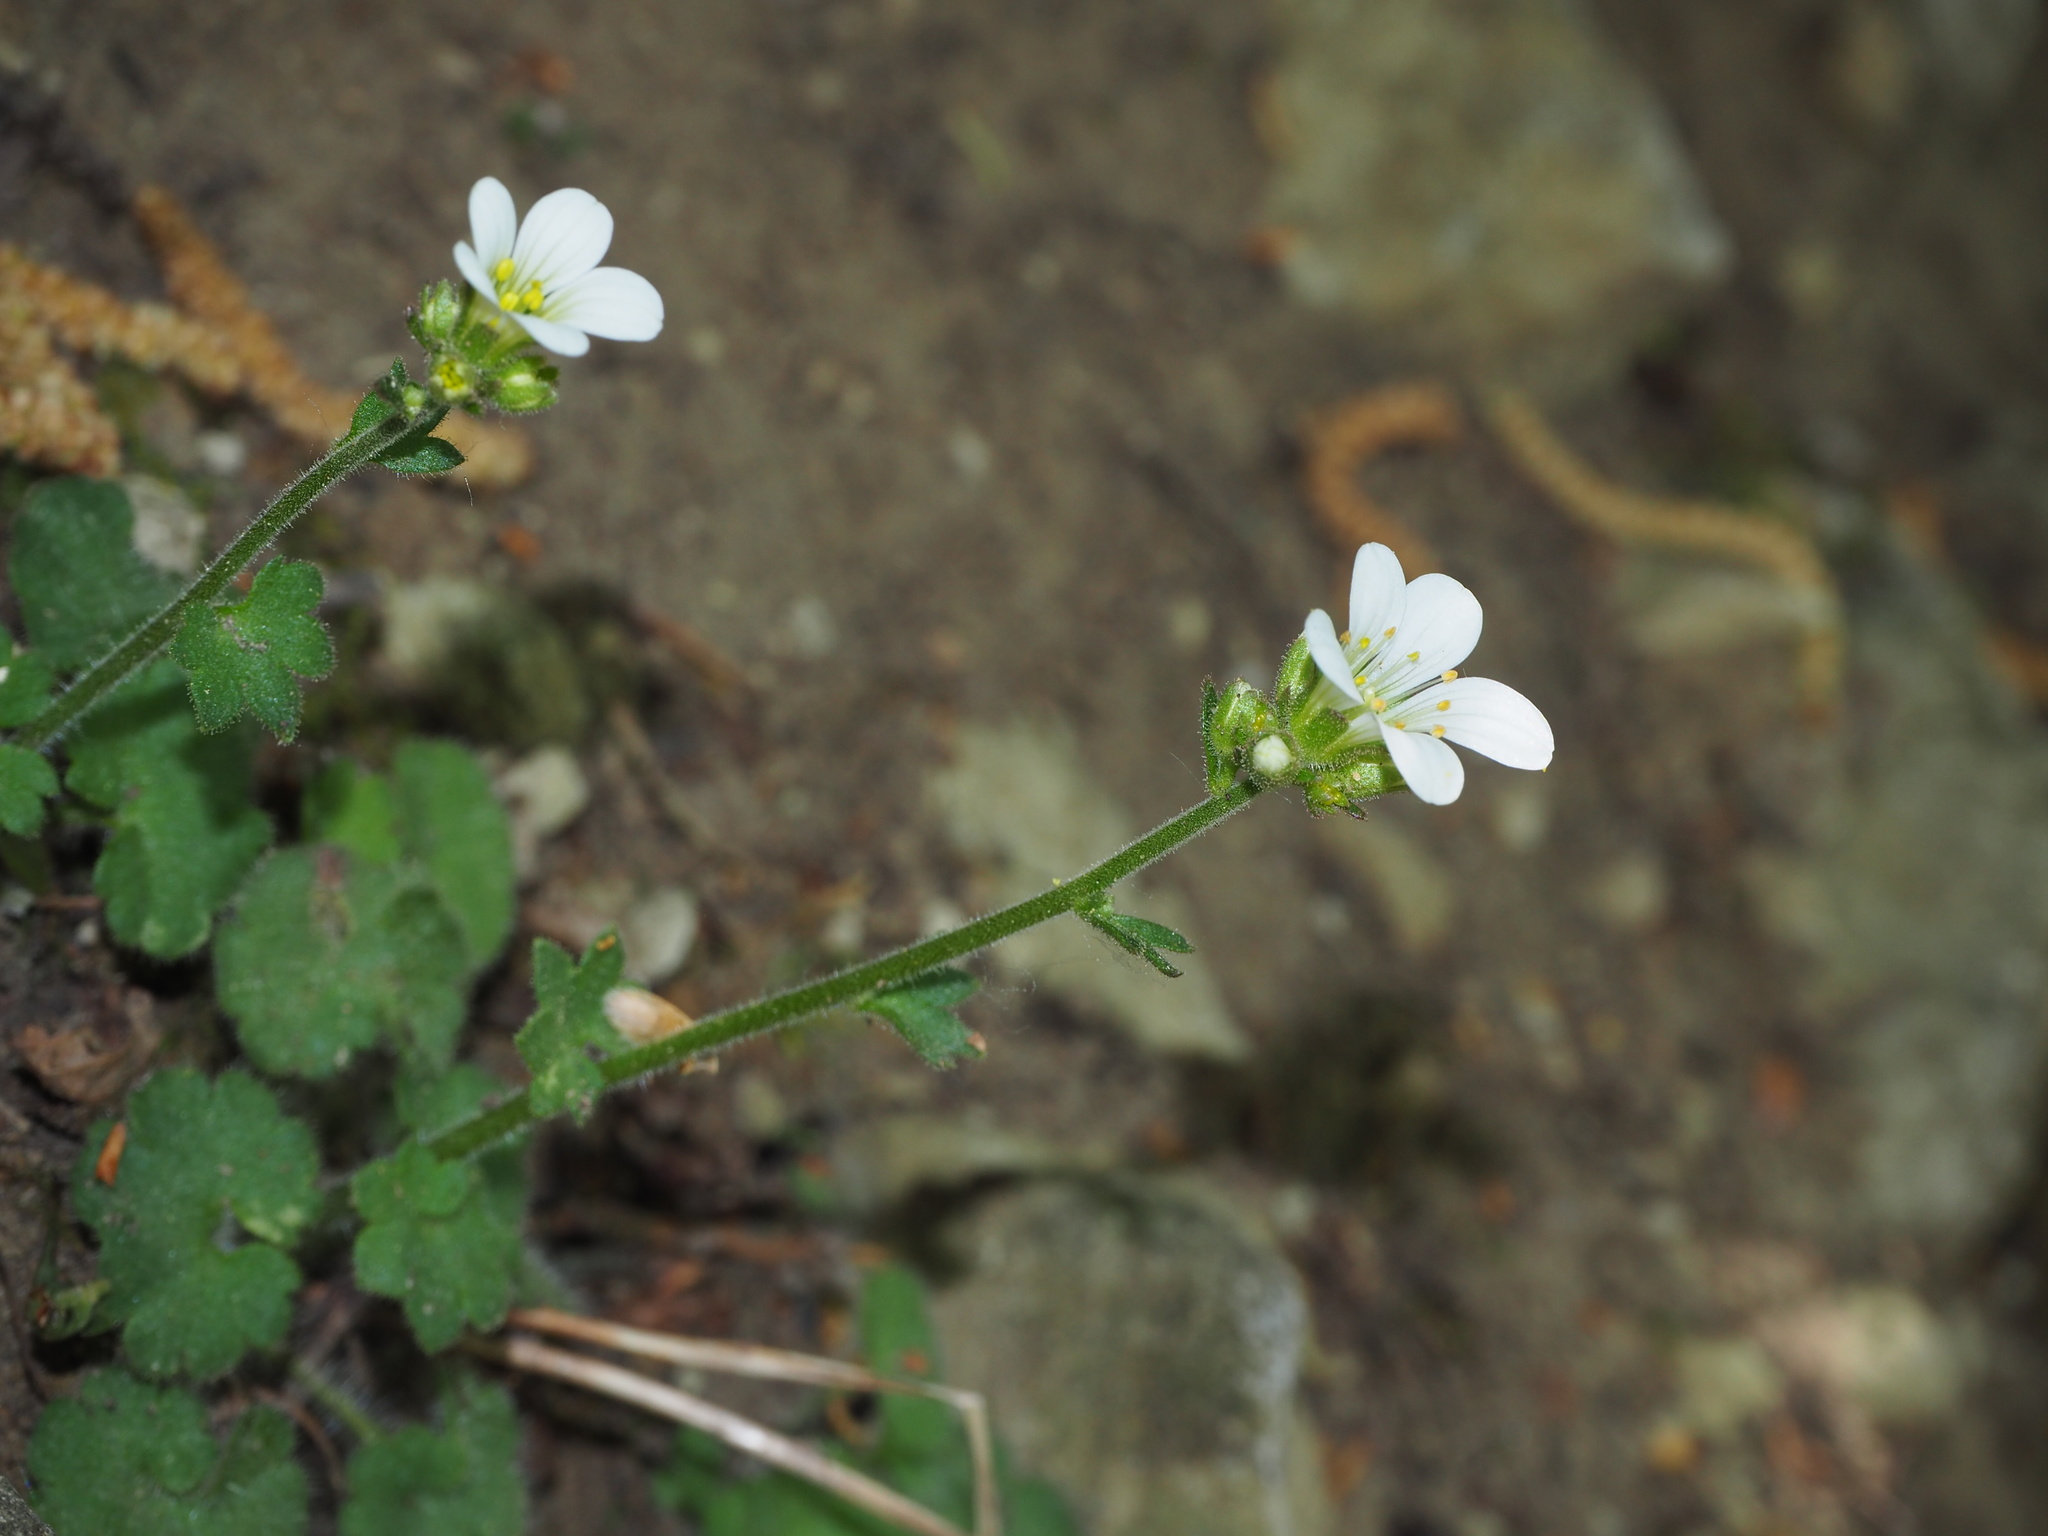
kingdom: Plantae
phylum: Tracheophyta
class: Magnoliopsida
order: Saxifragales
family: Saxifragaceae
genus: Saxifraga
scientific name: Saxifraga granulata
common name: Meadow saxifrage
